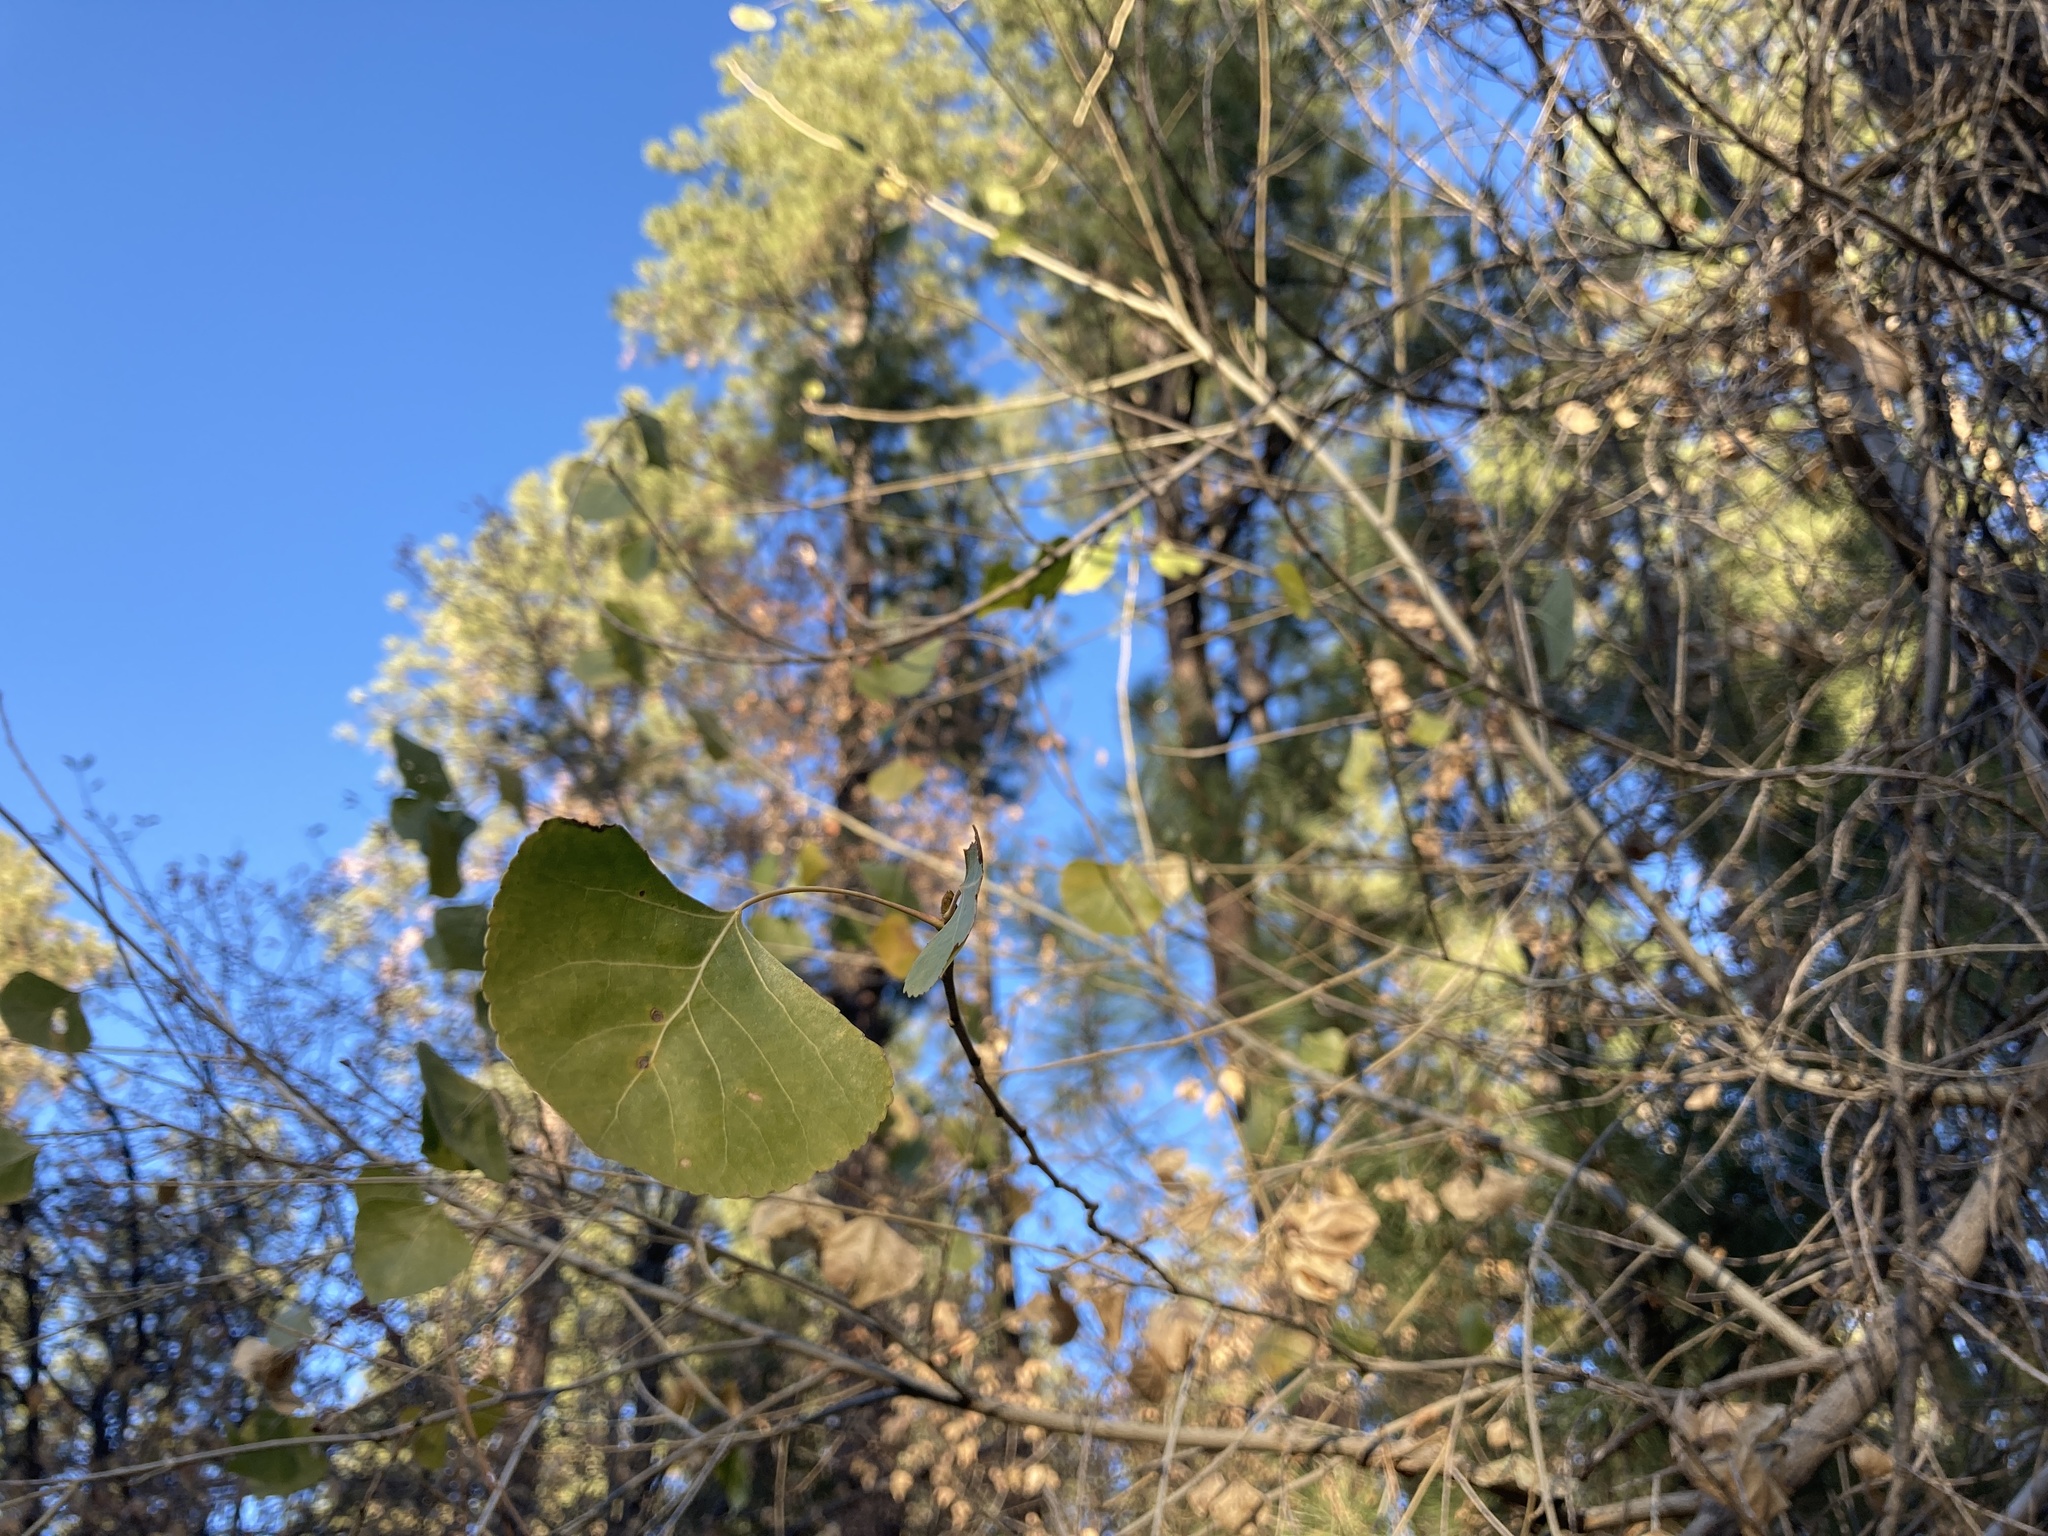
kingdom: Plantae
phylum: Tracheophyta
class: Magnoliopsida
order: Malpighiales
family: Salicaceae
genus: Populus
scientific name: Populus fremontii
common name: Fremont's cottonwood
